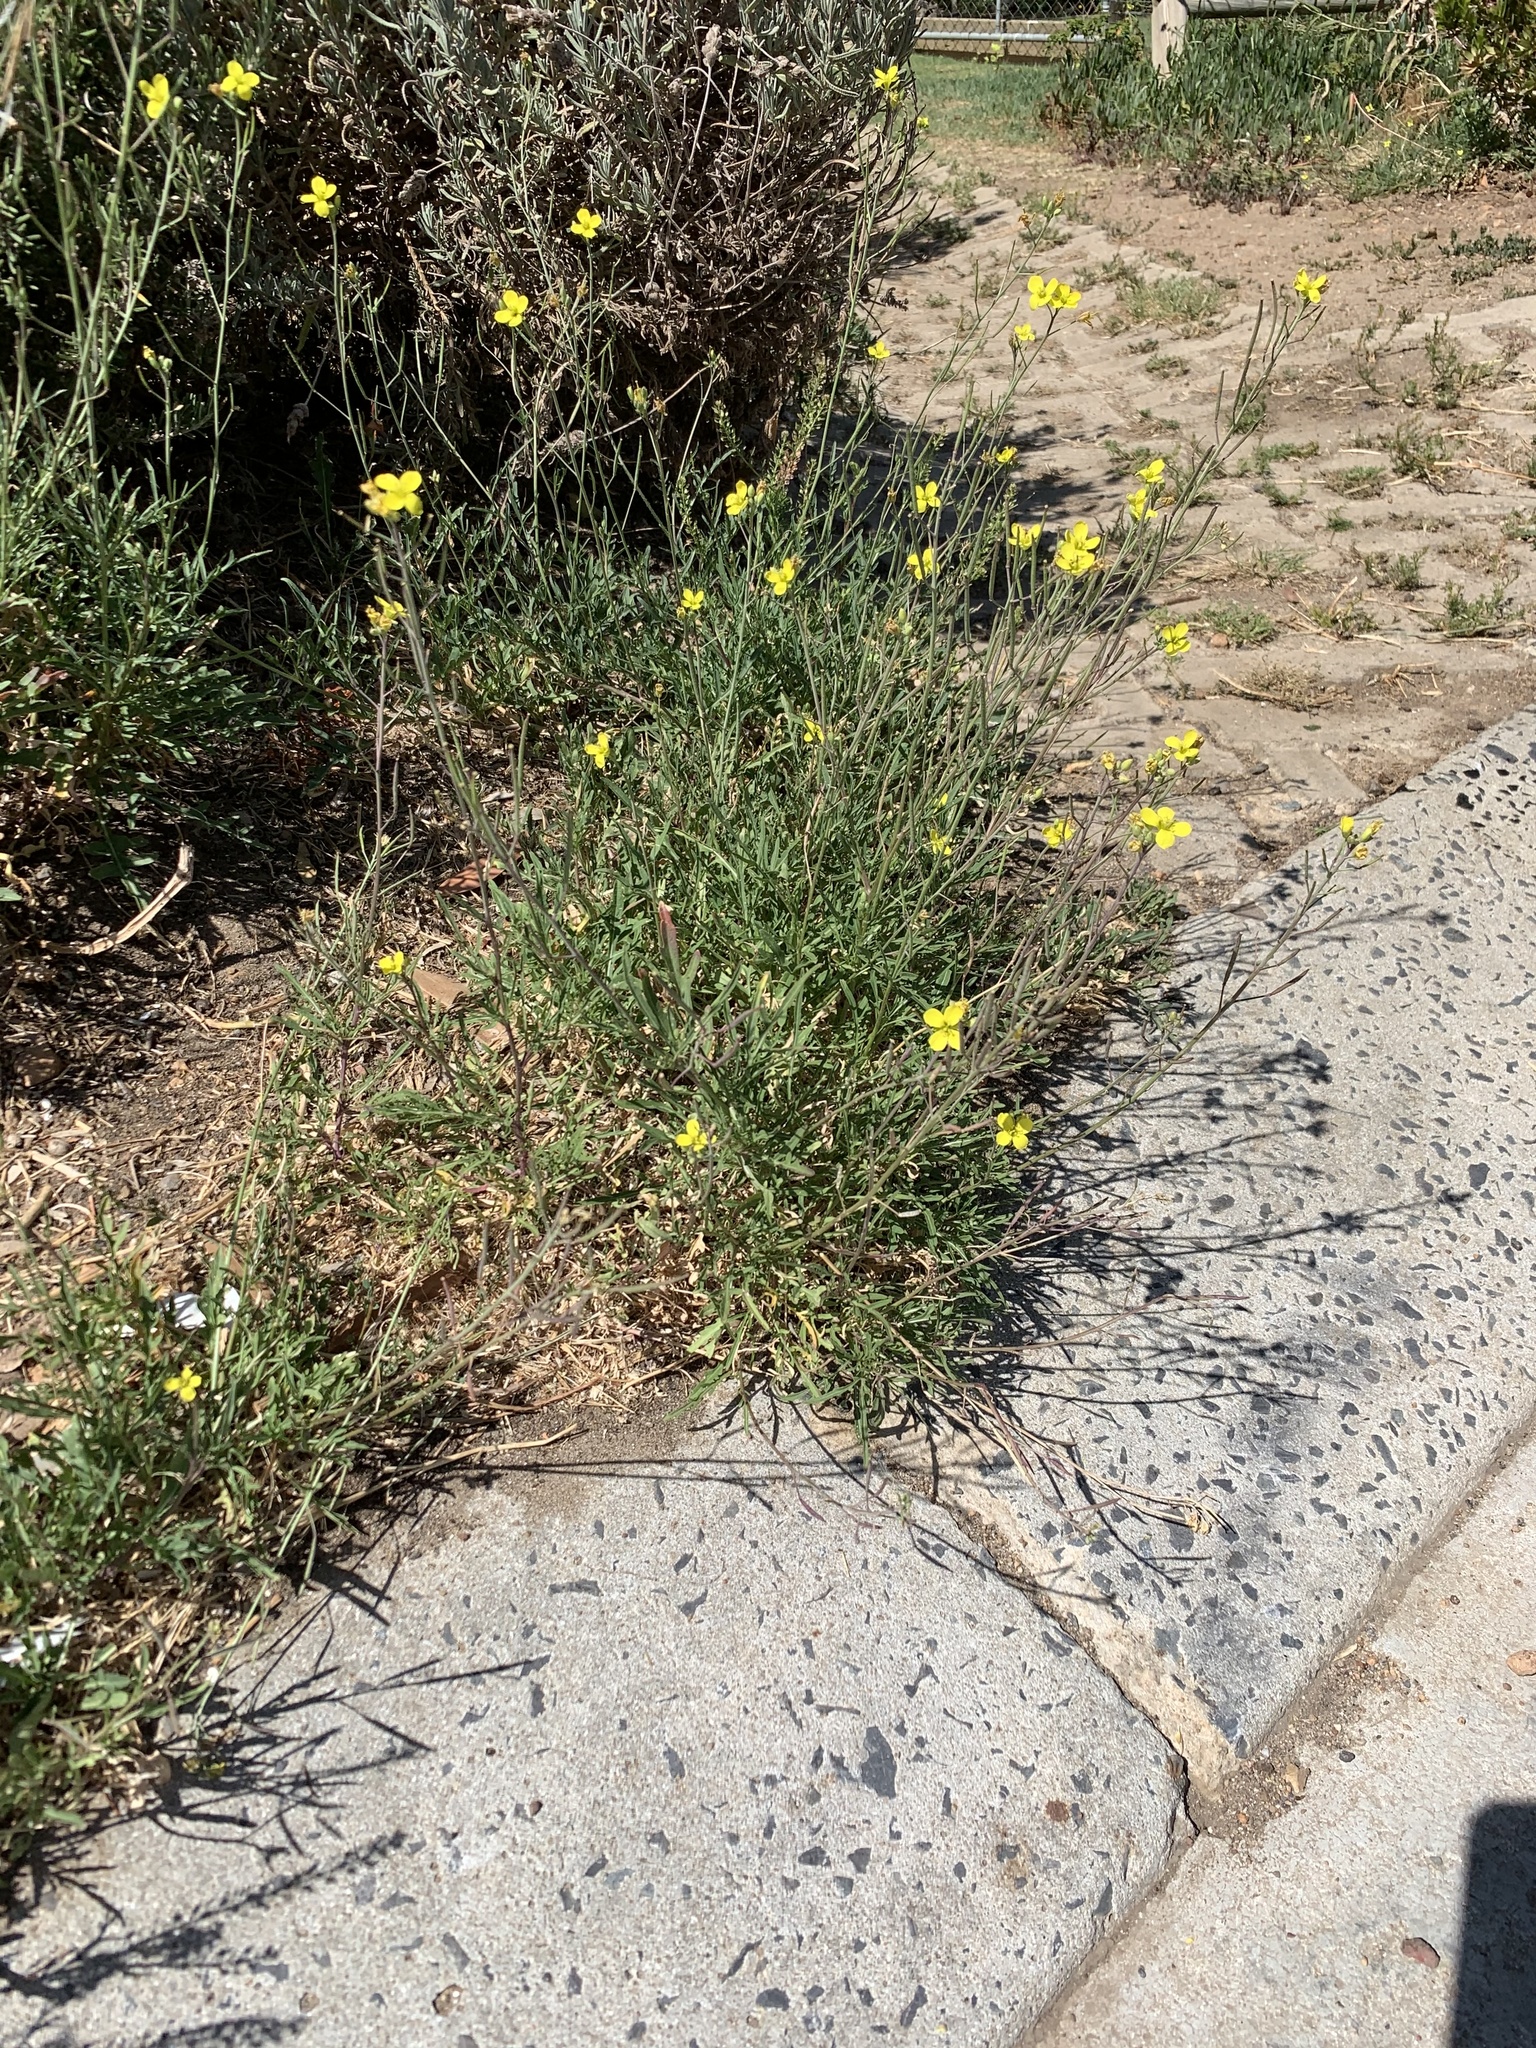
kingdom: Plantae
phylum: Tracheophyta
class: Magnoliopsida
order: Brassicales
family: Brassicaceae
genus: Diplotaxis
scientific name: Diplotaxis tenuifolia
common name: Perennial wall-rocket
